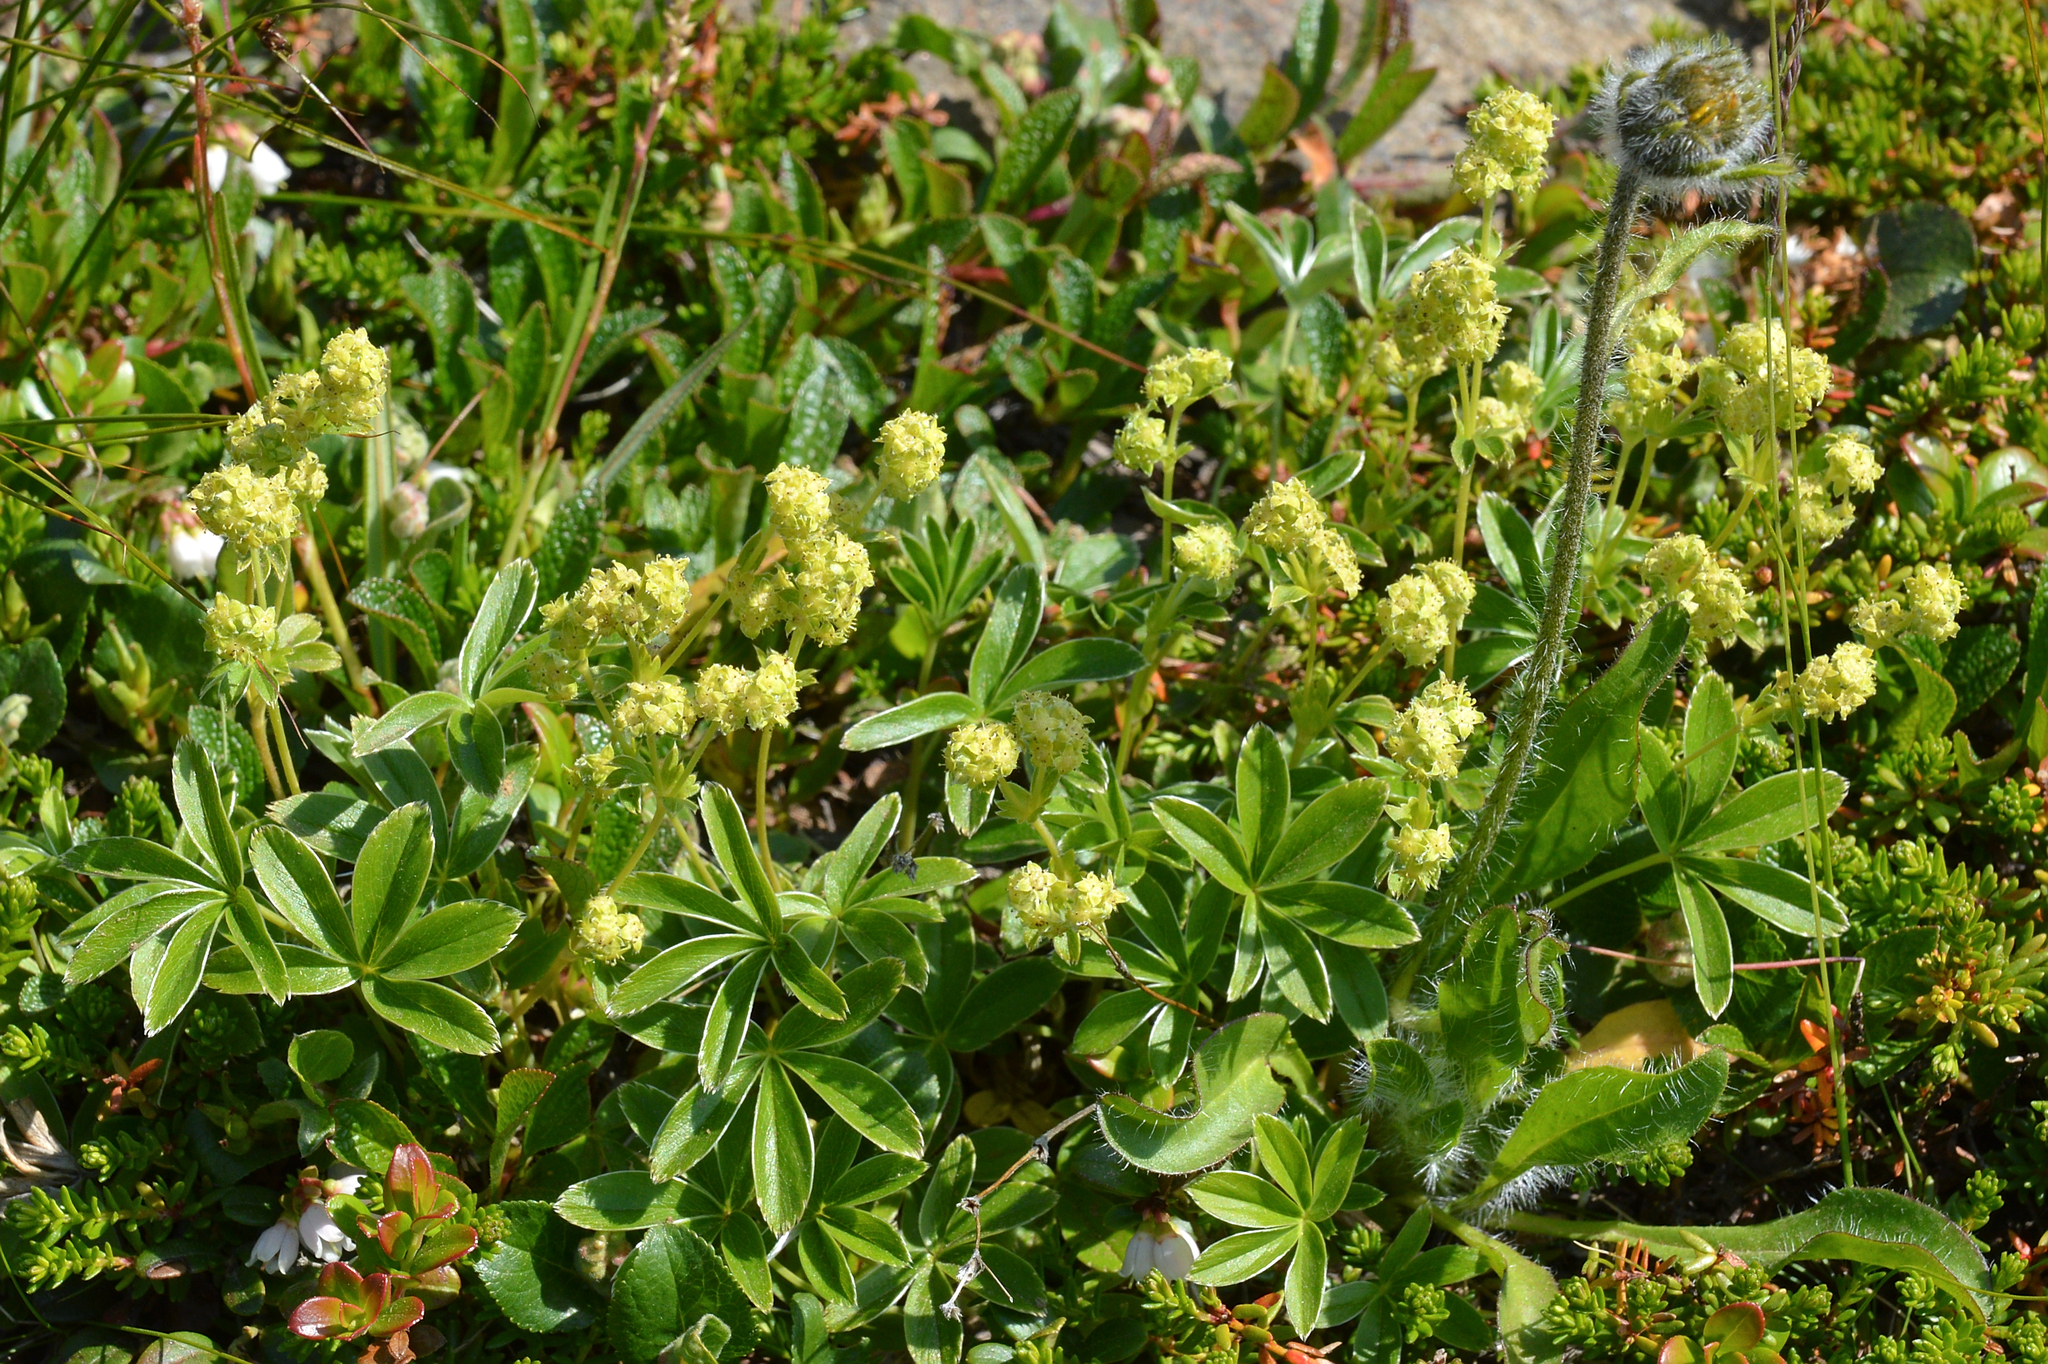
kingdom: Plantae
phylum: Tracheophyta
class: Magnoliopsida
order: Rosales
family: Rosaceae
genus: Alchemilla
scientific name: Alchemilla alpina
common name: Alpine lady's-mantle
